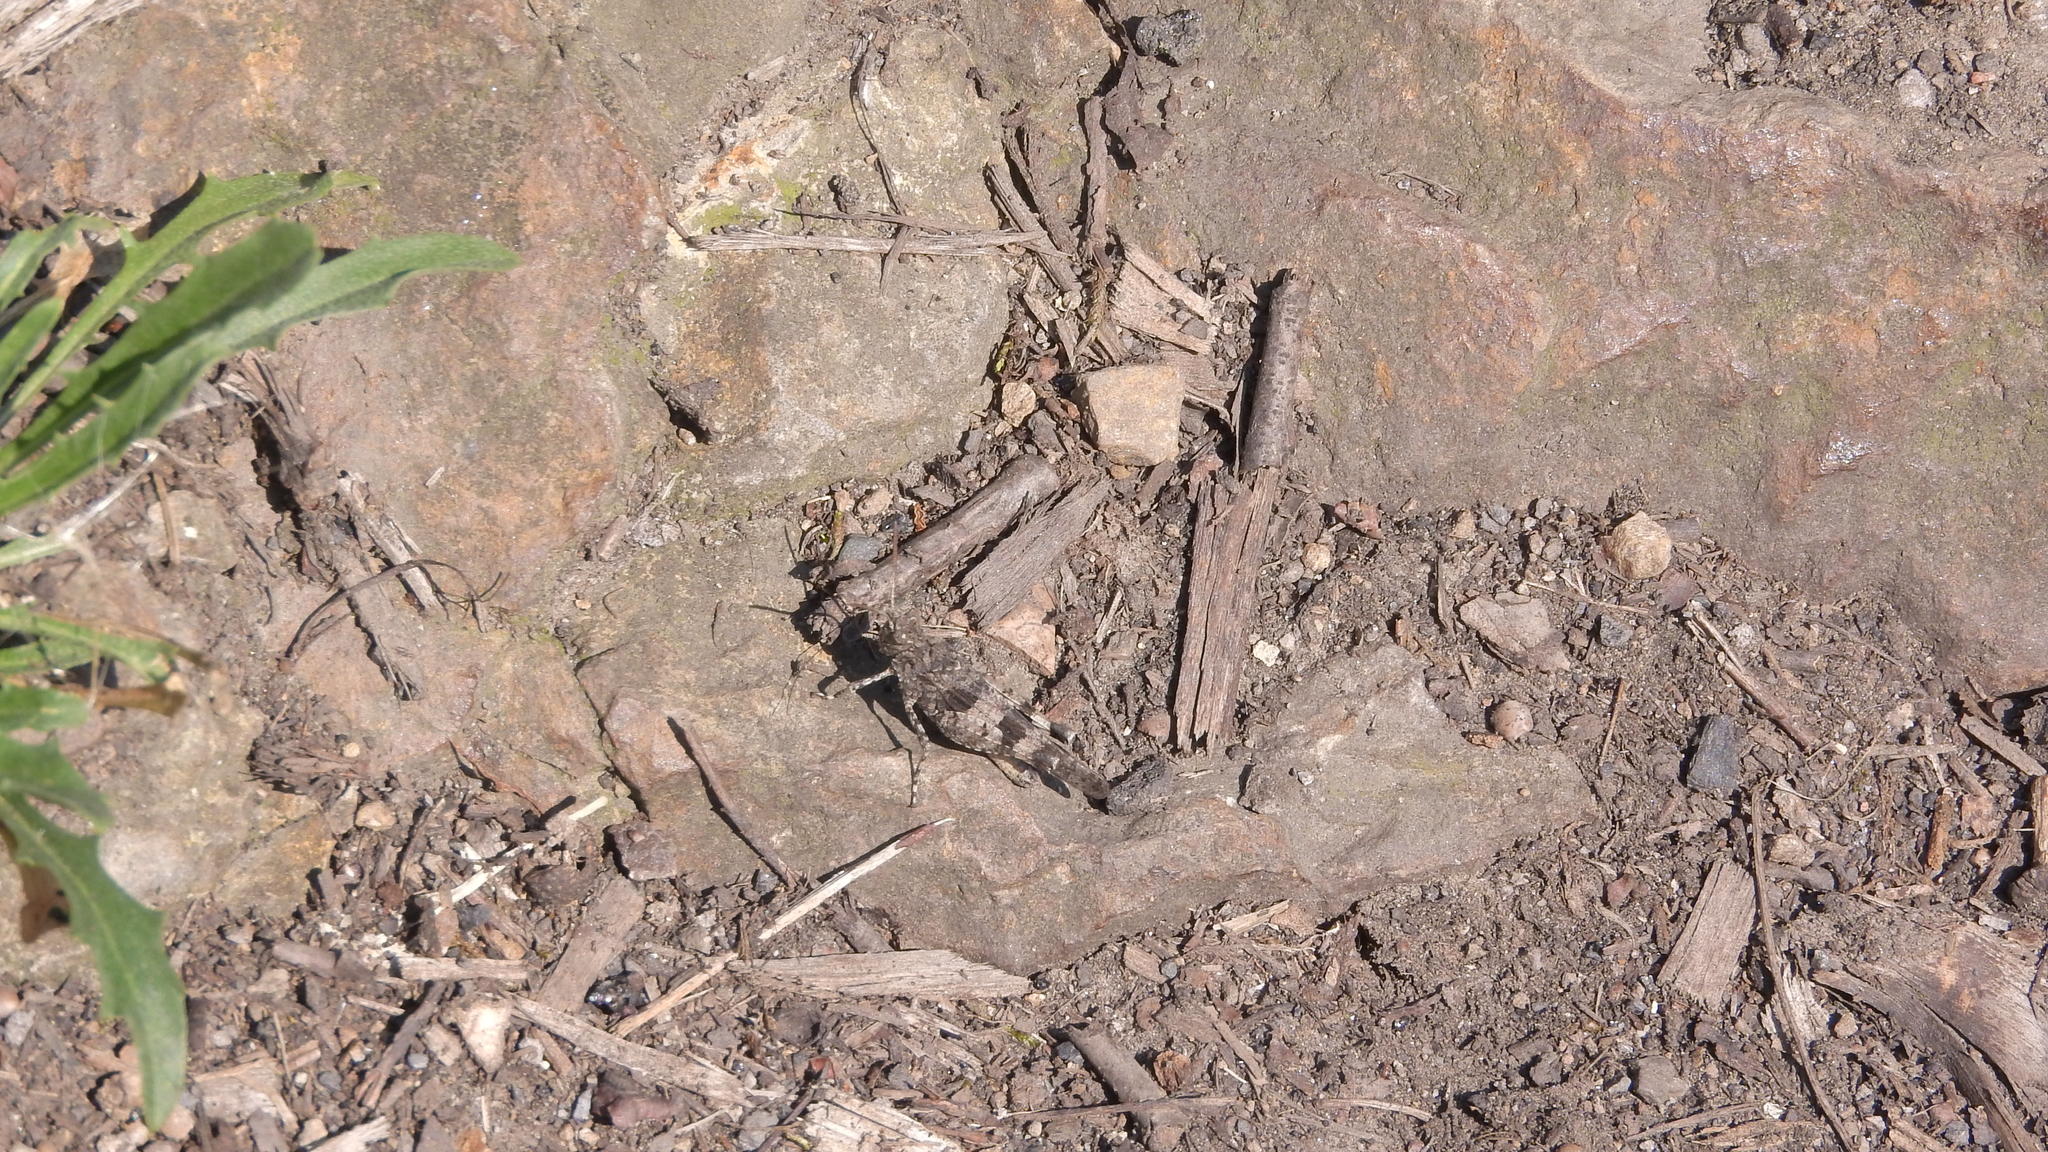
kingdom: Animalia
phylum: Arthropoda
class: Insecta
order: Orthoptera
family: Acrididae
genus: Oedipoda
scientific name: Oedipoda caerulescens
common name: Blue-winged grasshopper
